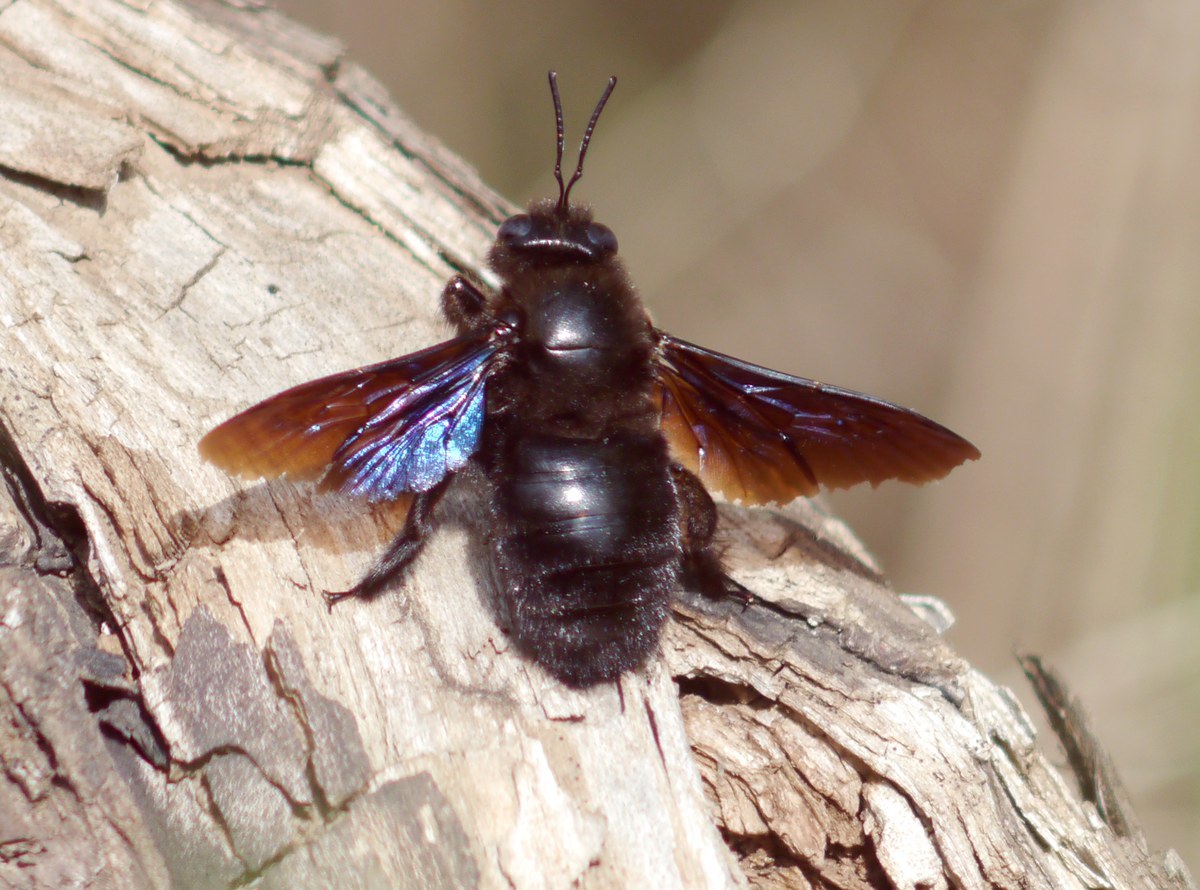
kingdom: Animalia
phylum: Arthropoda
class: Insecta
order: Hymenoptera
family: Apidae
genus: Xylocopa
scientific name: Xylocopa valga
